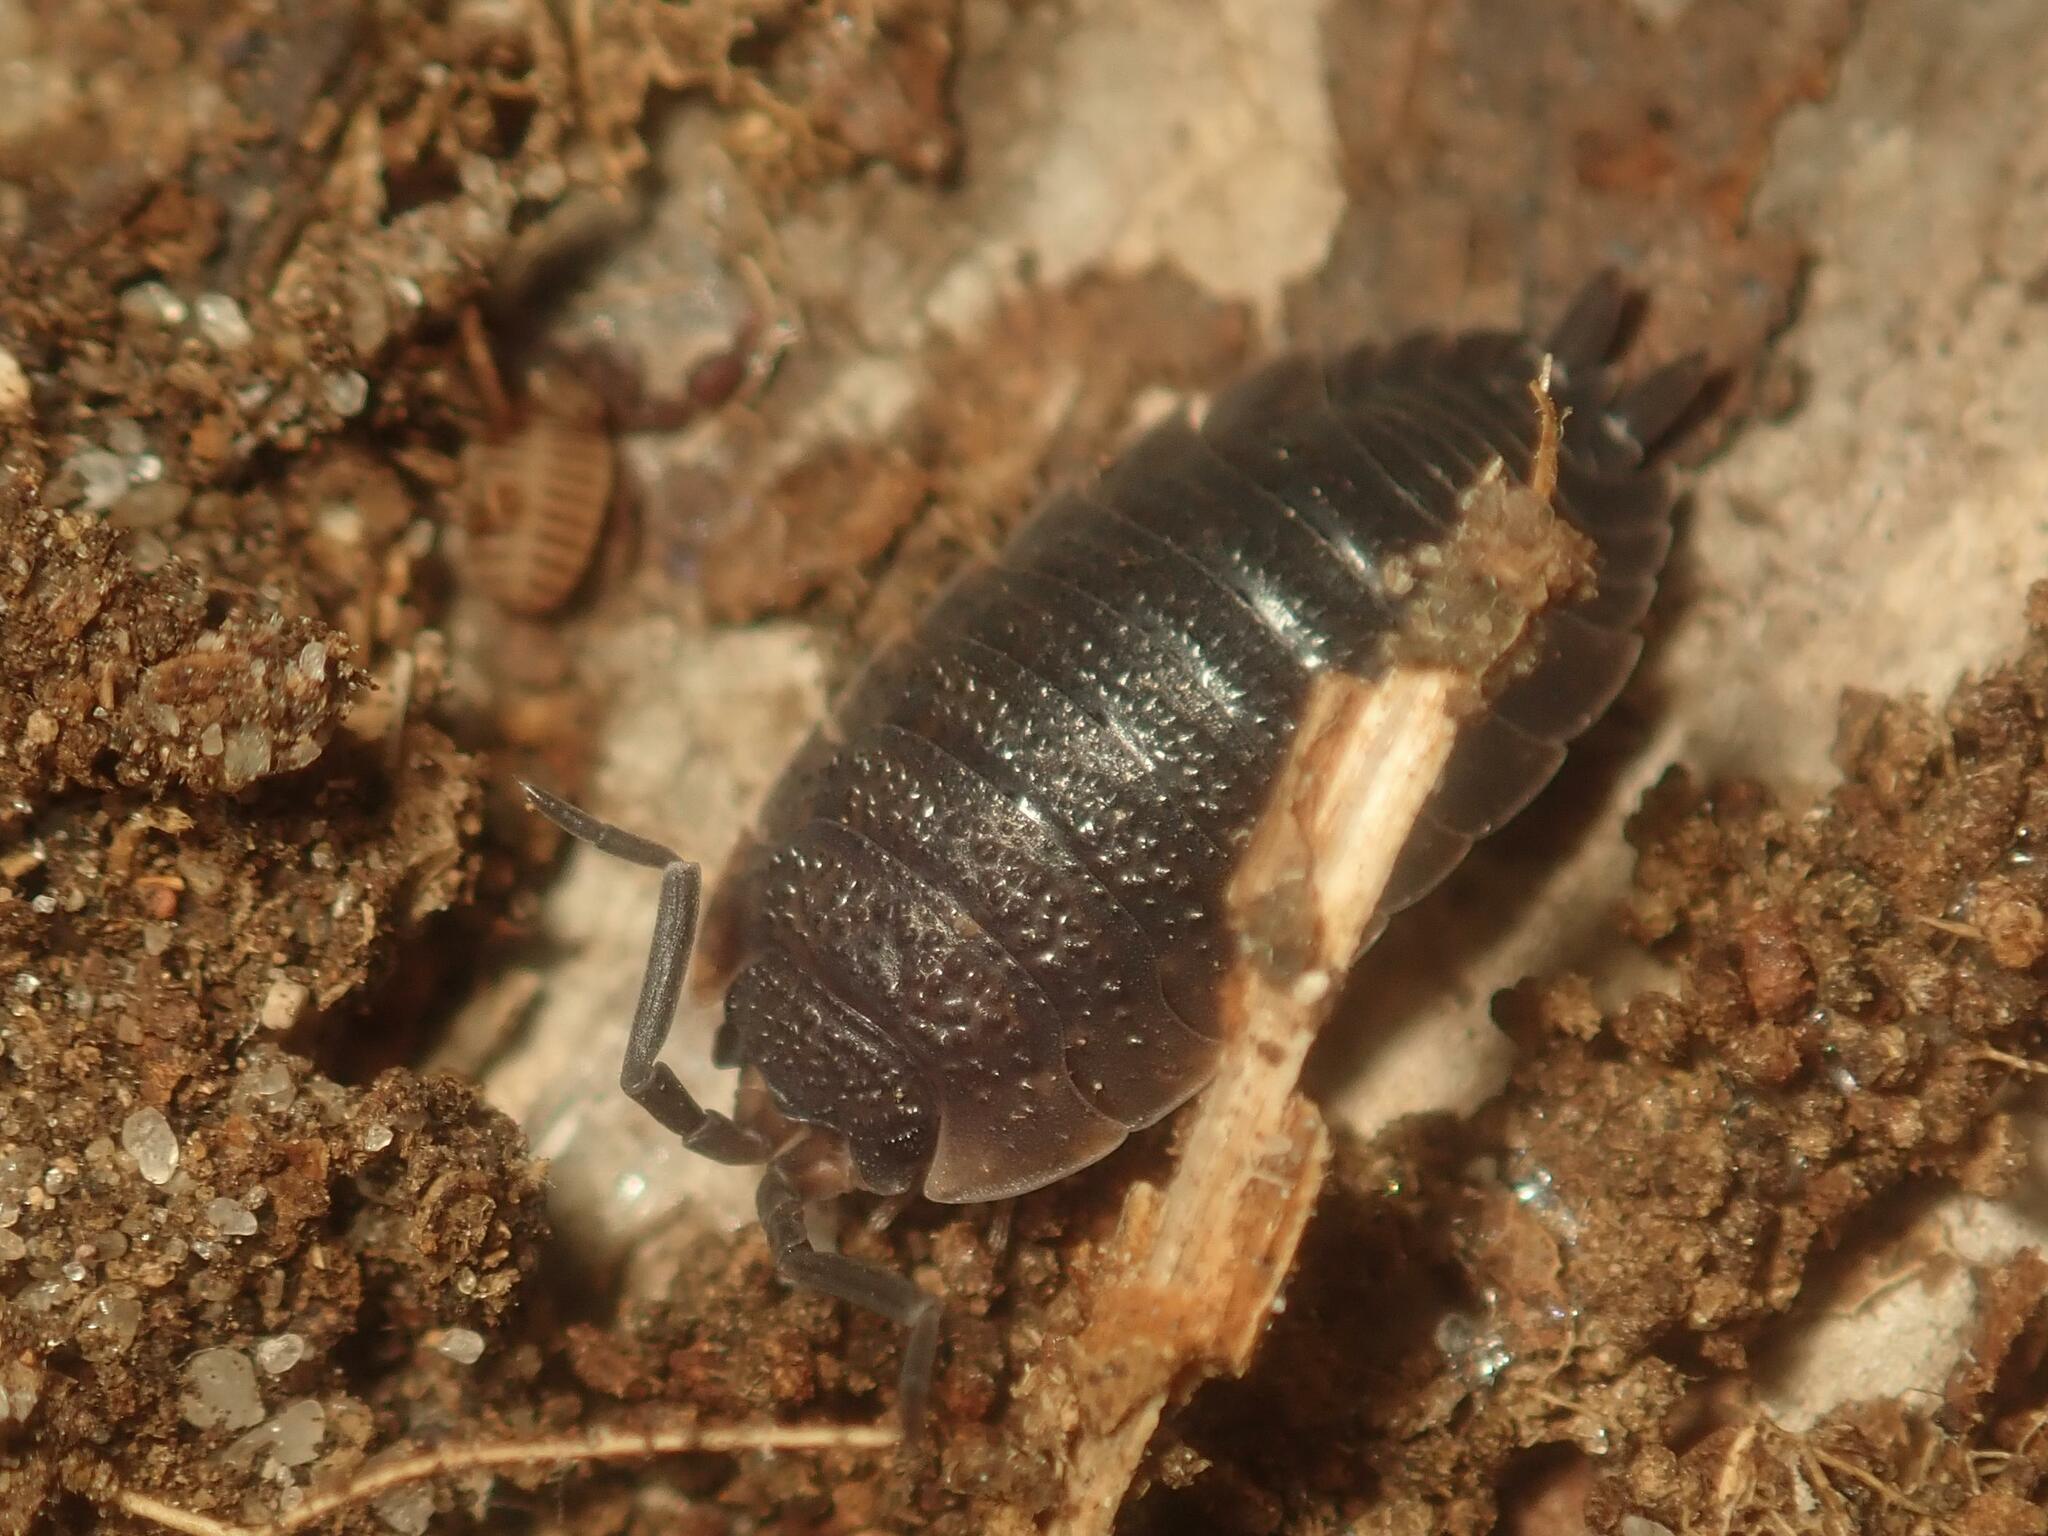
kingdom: Animalia
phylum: Arthropoda
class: Malacostraca
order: Isopoda
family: Porcellionidae
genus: Porcellio
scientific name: Porcellio scaber
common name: Common rough woodlouse
